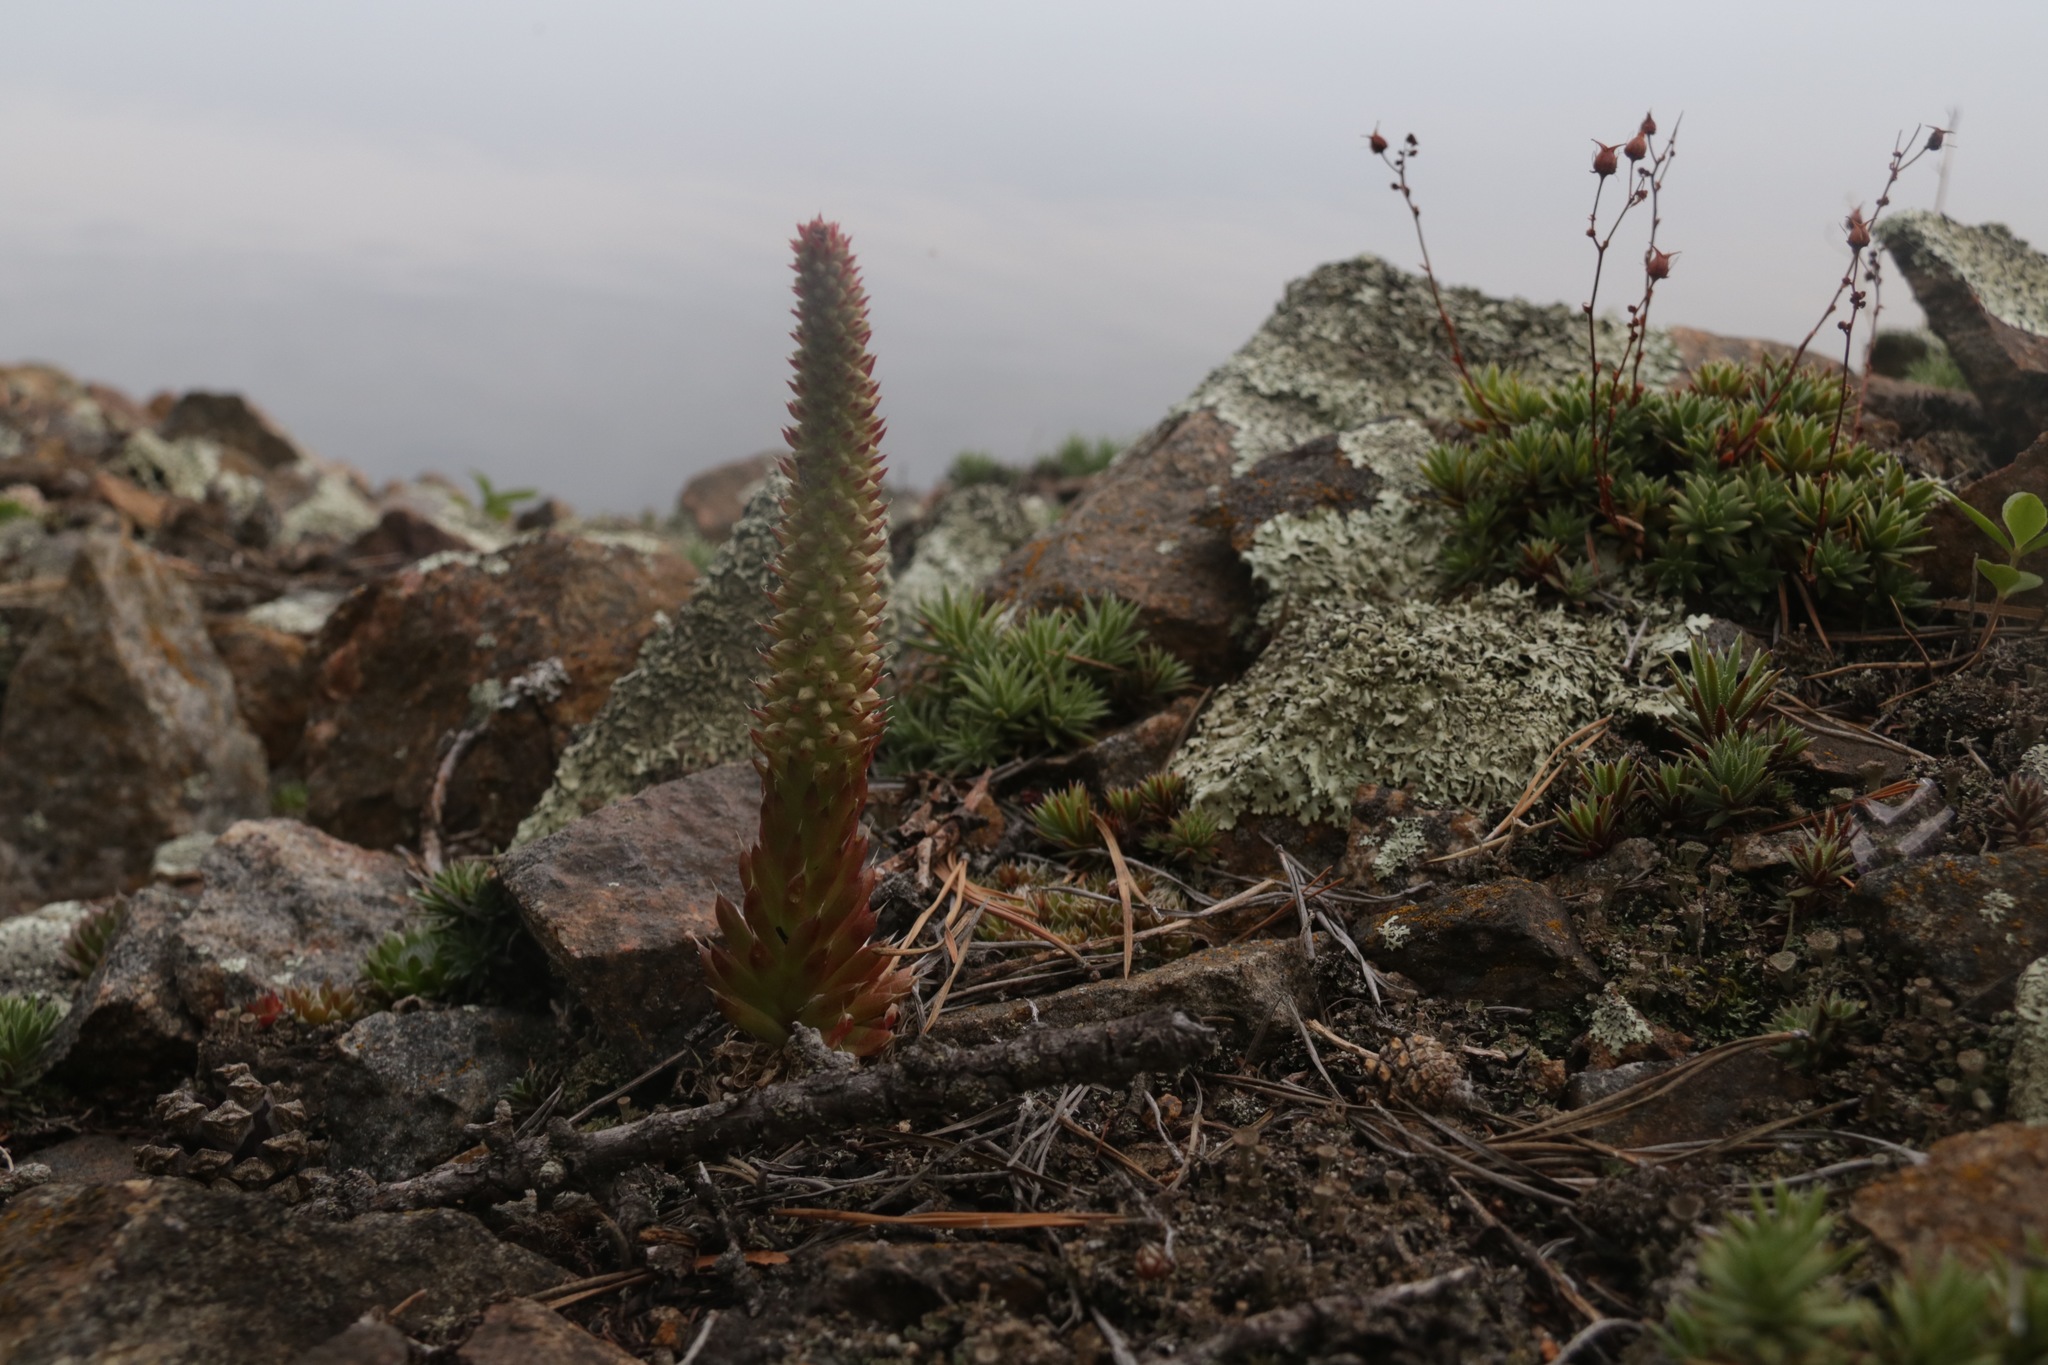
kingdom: Plantae
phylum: Tracheophyta
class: Magnoliopsida
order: Saxifragales
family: Crassulaceae
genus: Orostachys
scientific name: Orostachys spinosa
